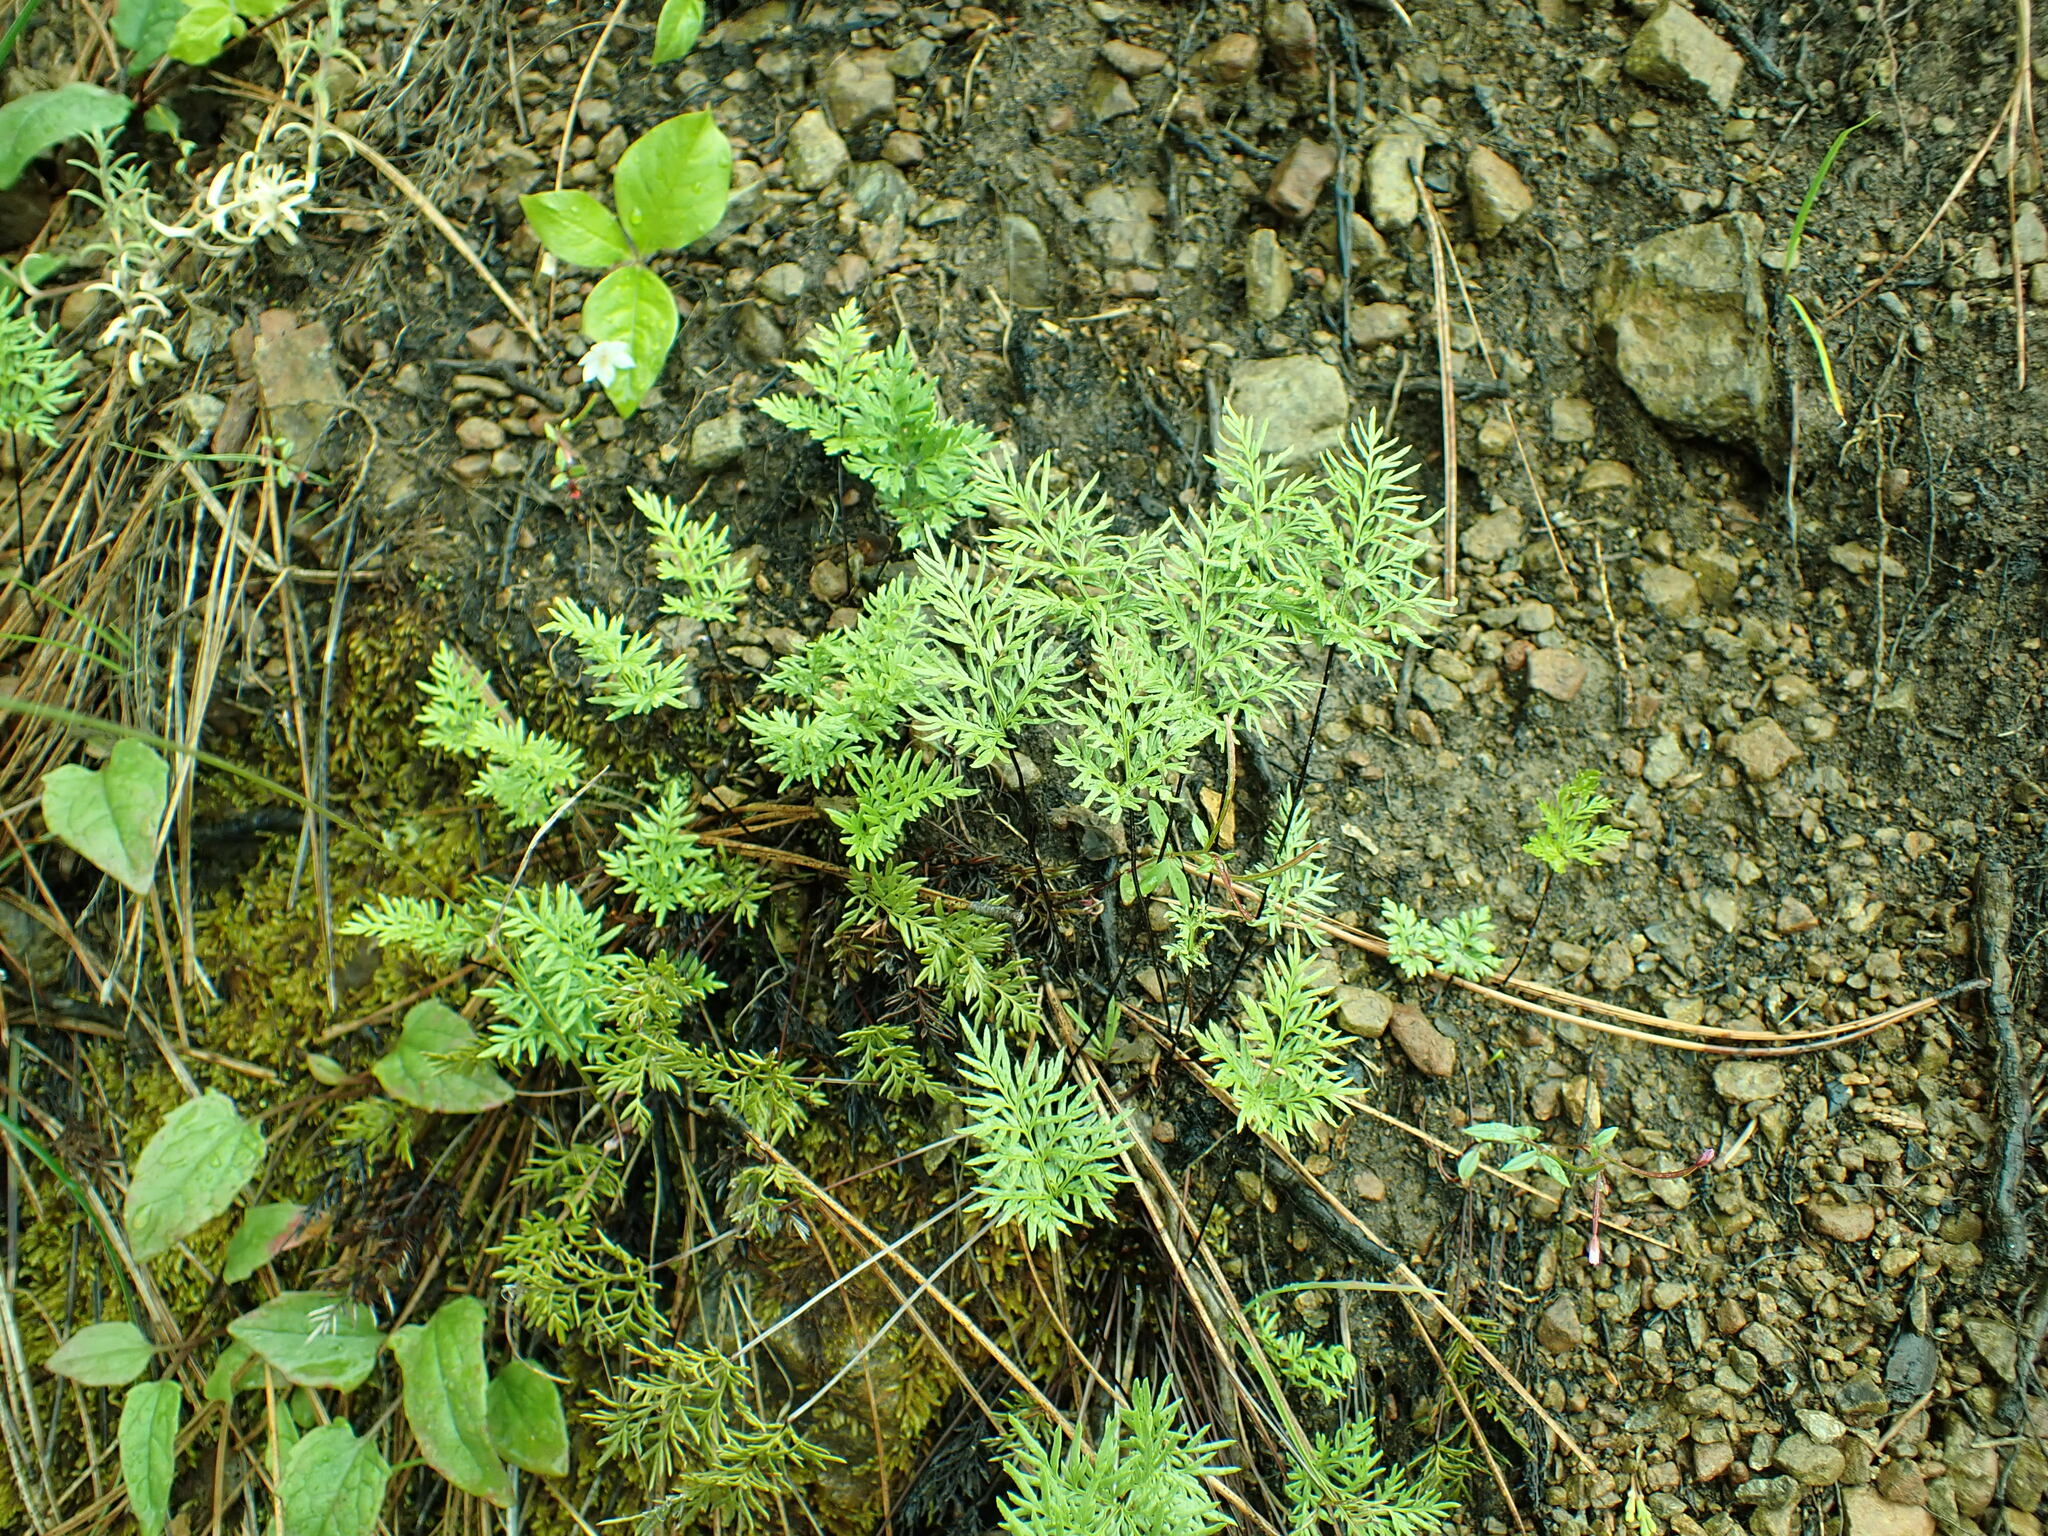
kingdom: Plantae
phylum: Tracheophyta
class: Polypodiopsida
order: Polypodiales
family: Pteridaceae
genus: Aspidotis
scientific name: Aspidotis densa
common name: Indian's dream
